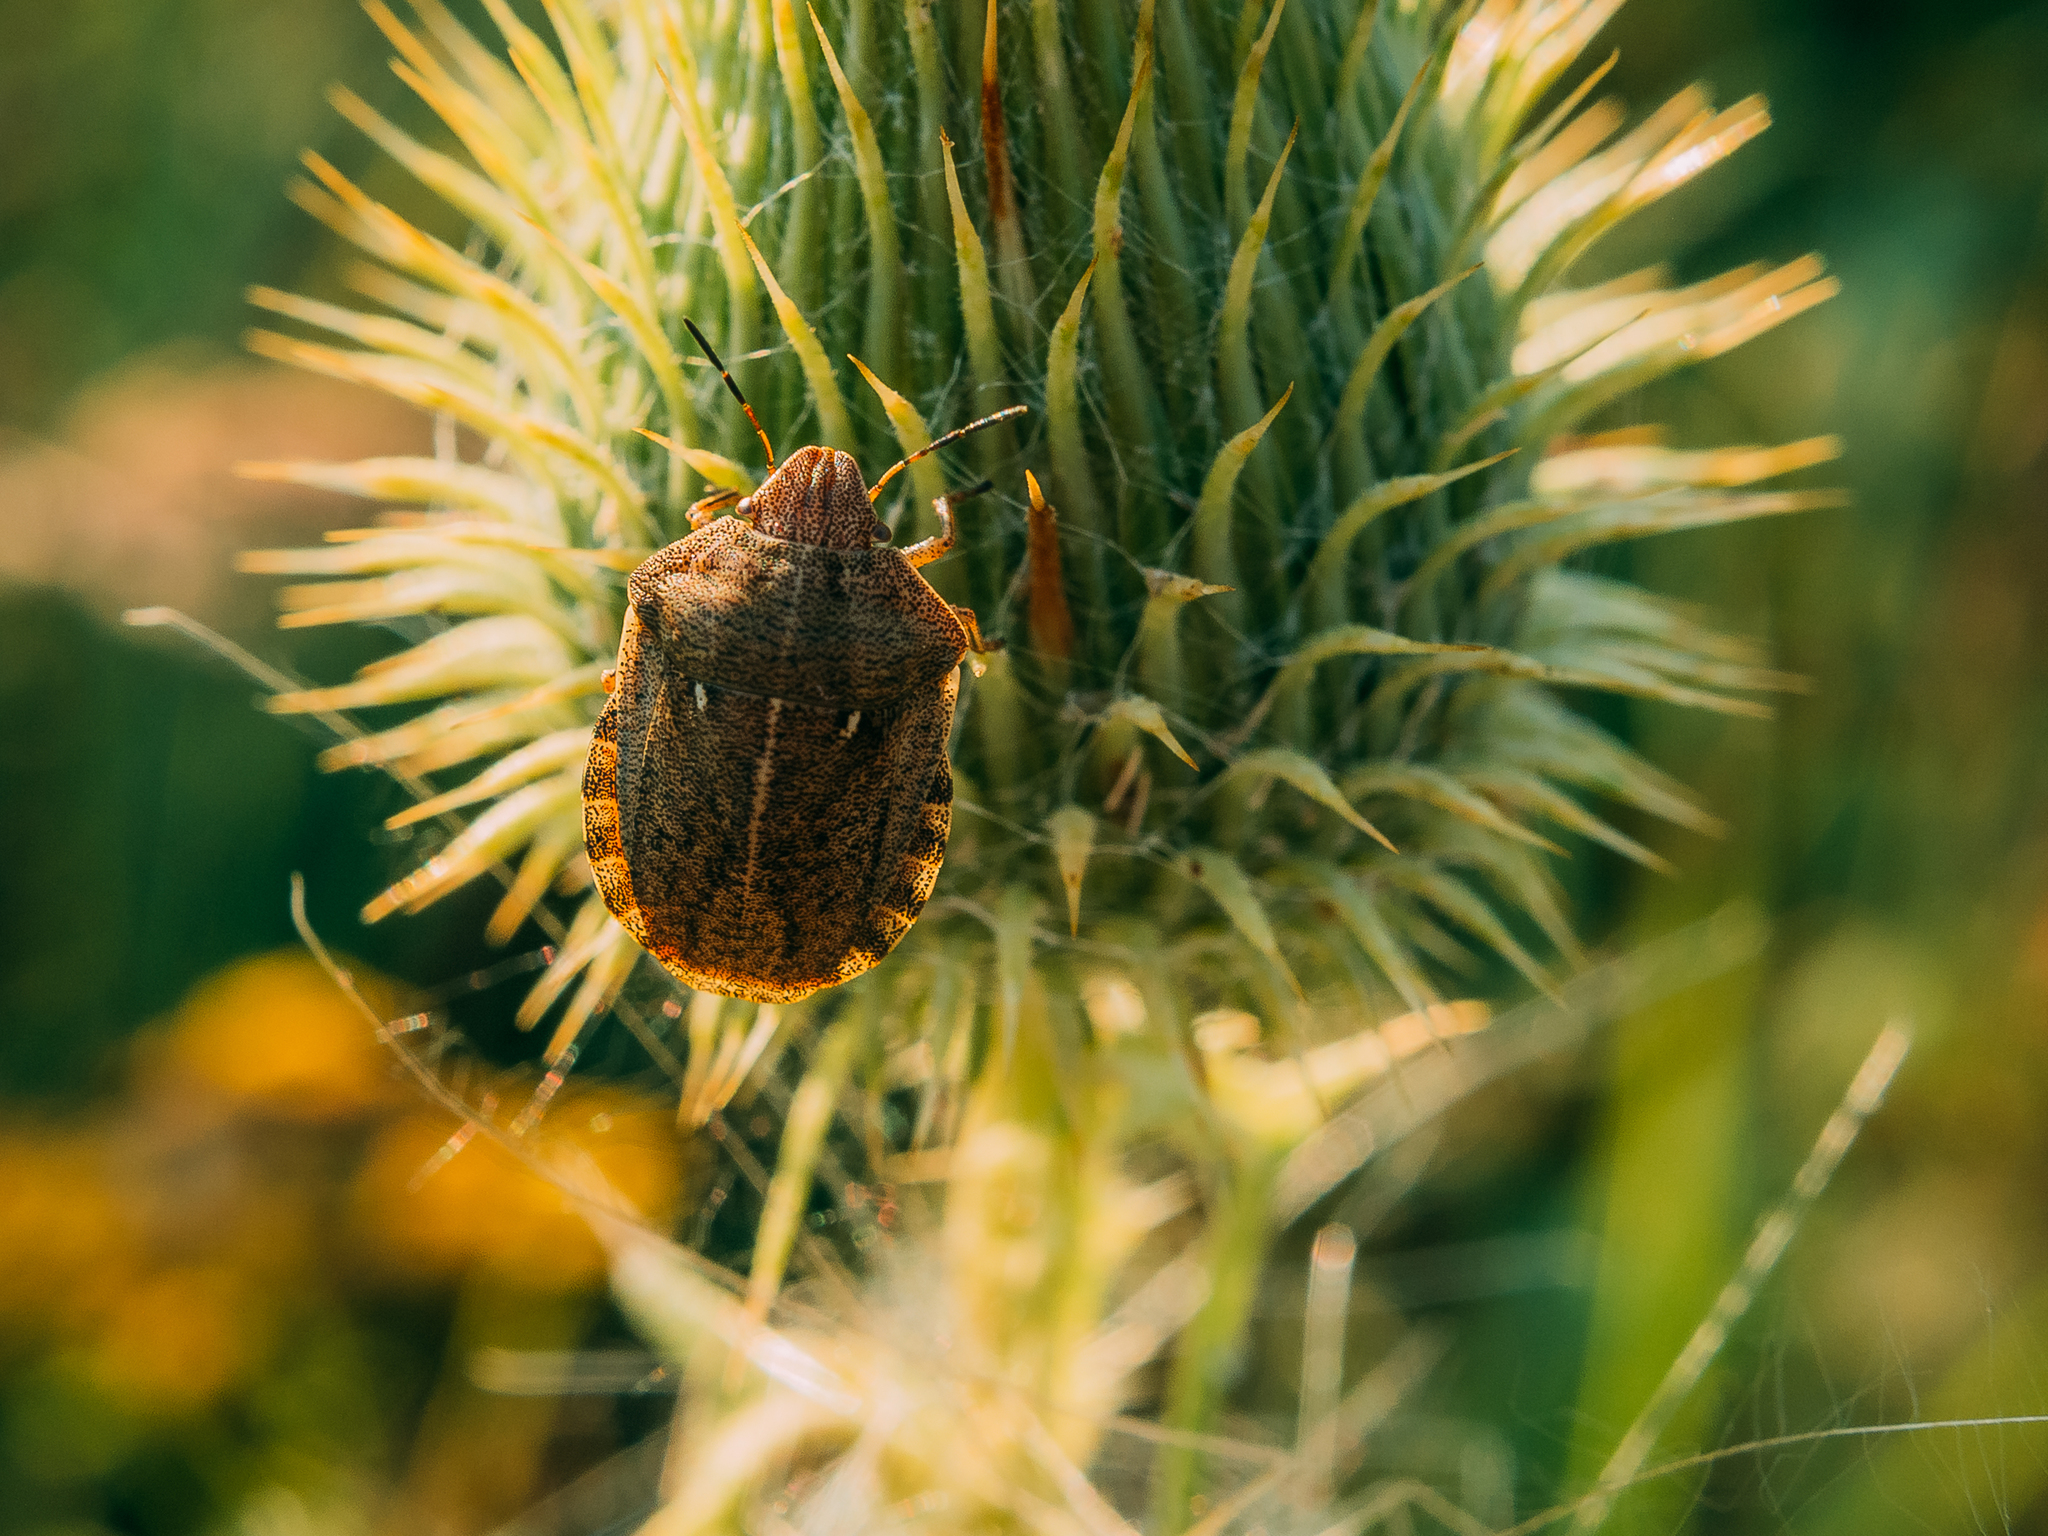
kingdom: Animalia
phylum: Arthropoda
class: Insecta
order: Hemiptera
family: Scutelleridae
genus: Eurygaster
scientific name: Eurygaster testudinaria
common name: Tortoise bug
